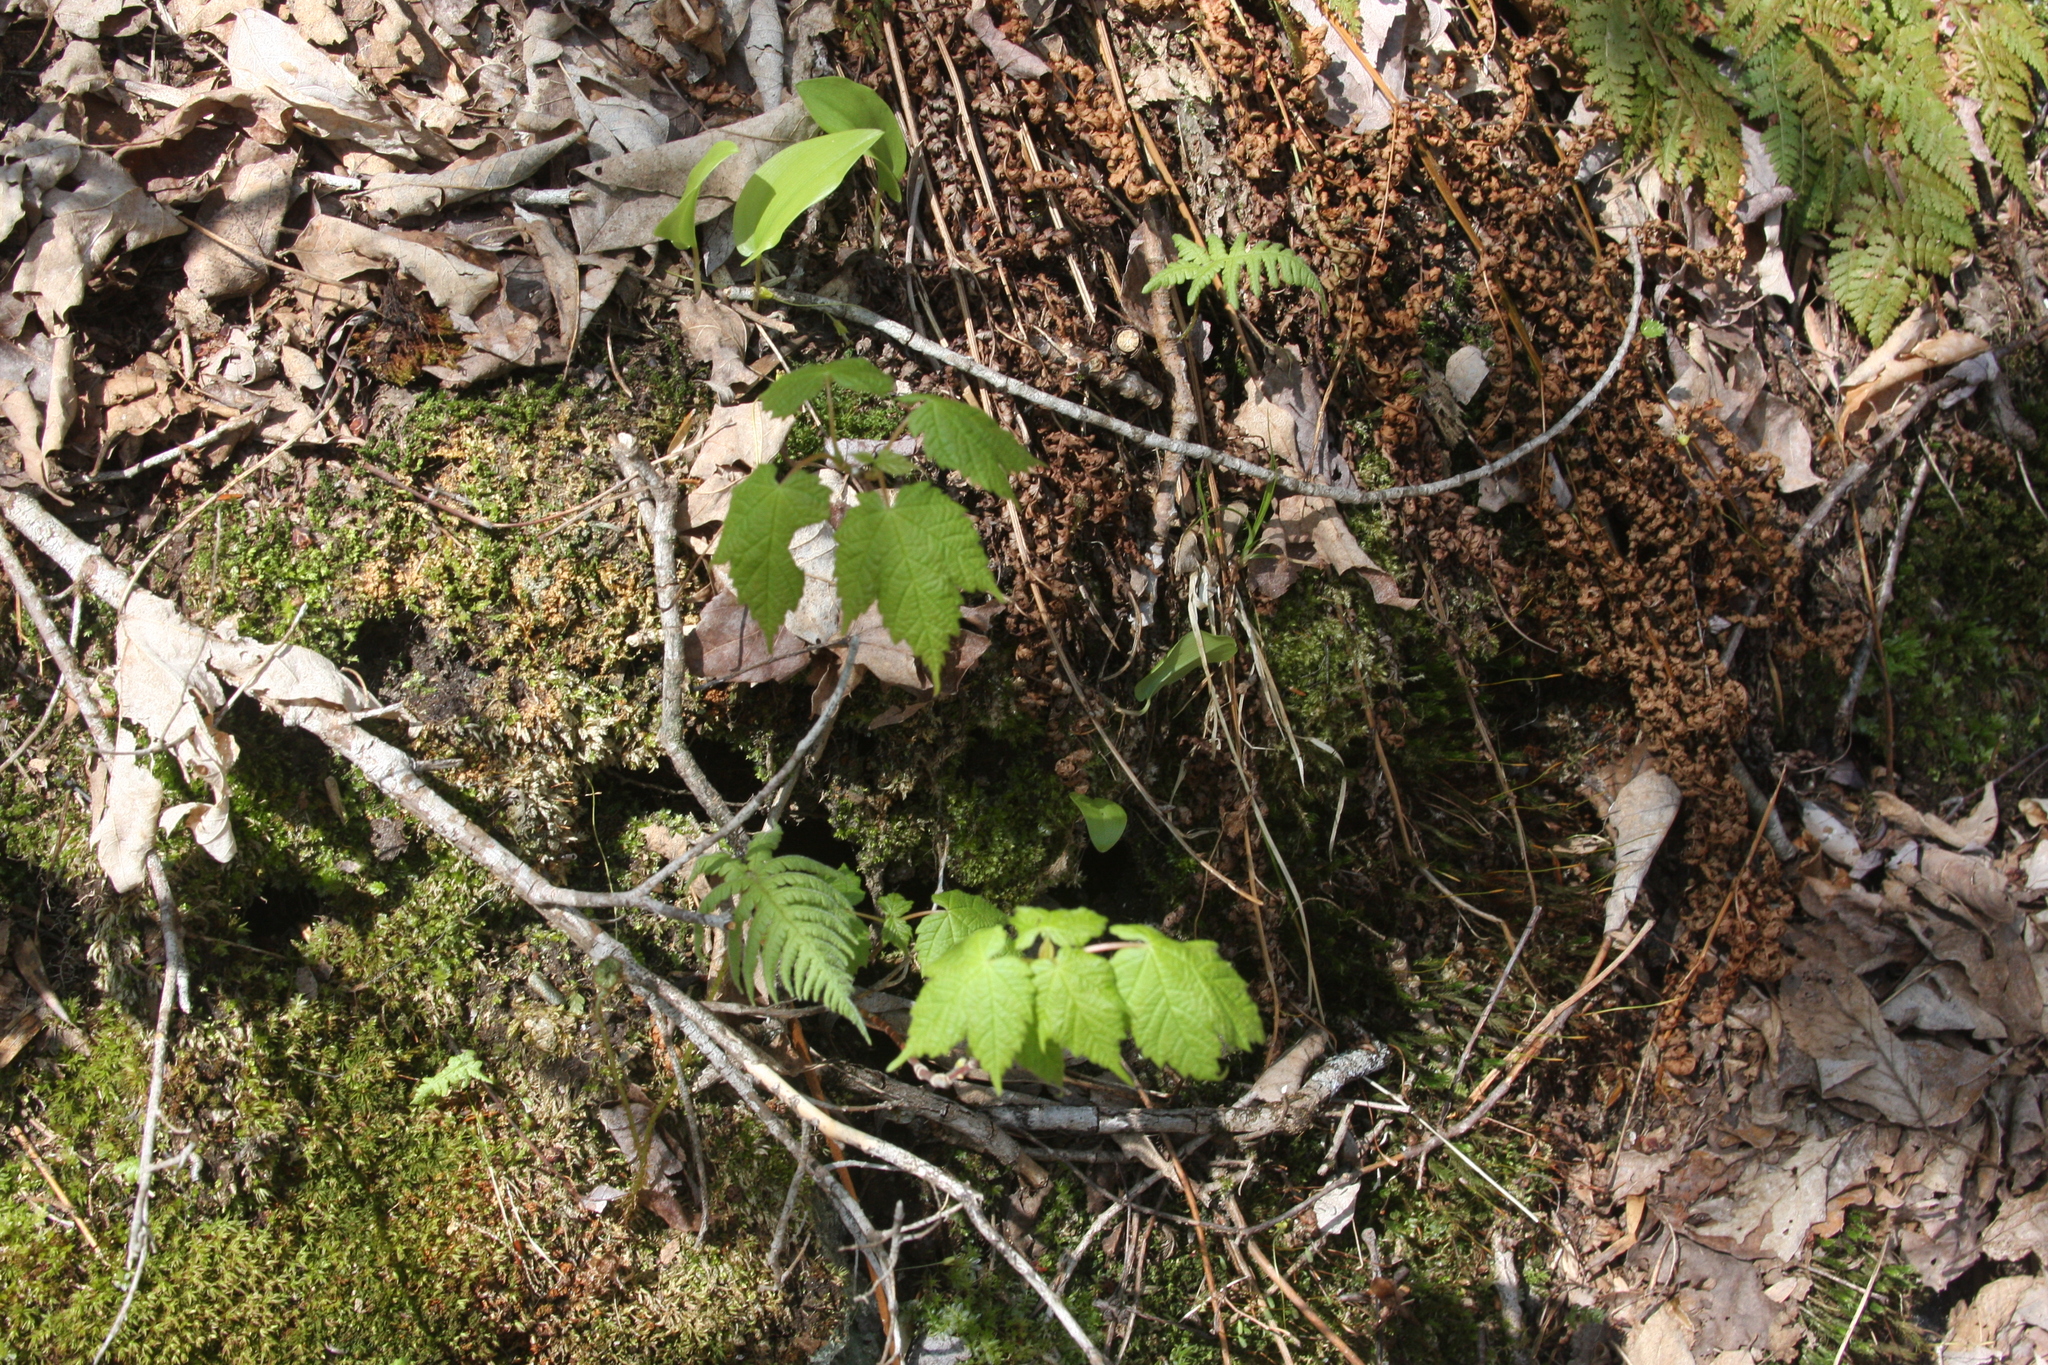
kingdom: Plantae
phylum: Tracheophyta
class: Magnoliopsida
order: Sapindales
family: Sapindaceae
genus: Acer
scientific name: Acer spicatum
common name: Mountain maple
